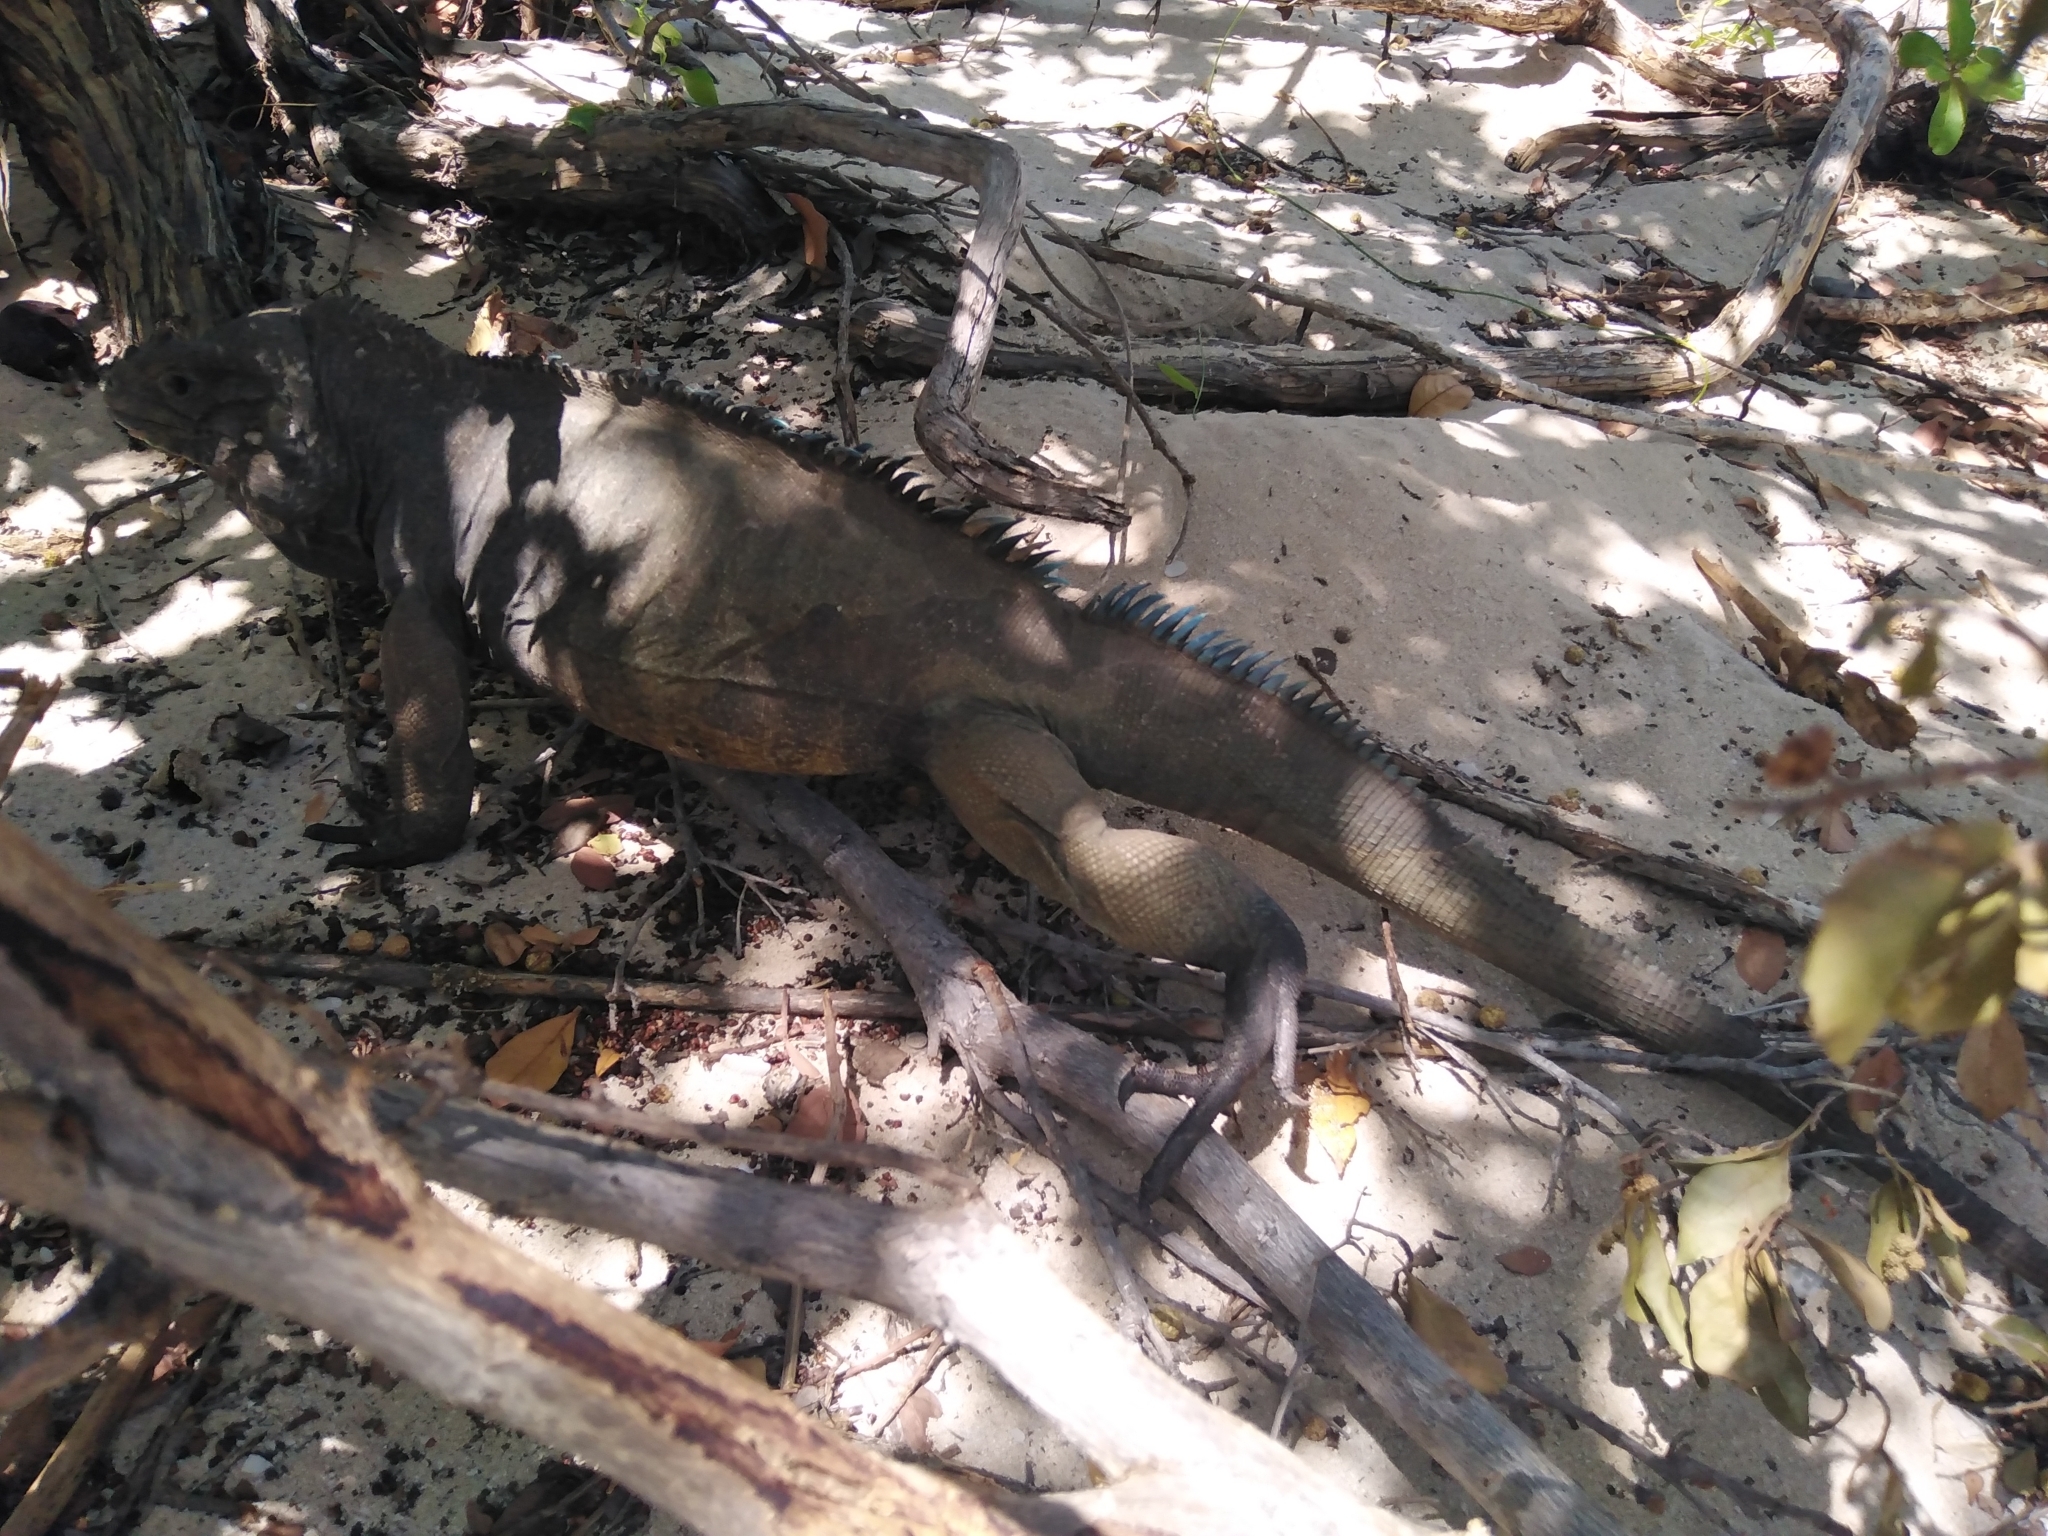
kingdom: Animalia
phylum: Chordata
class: Squamata
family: Iguanidae
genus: Cyclura
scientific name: Cyclura cornuta
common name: Hispaniolan rhinoceros iguana
